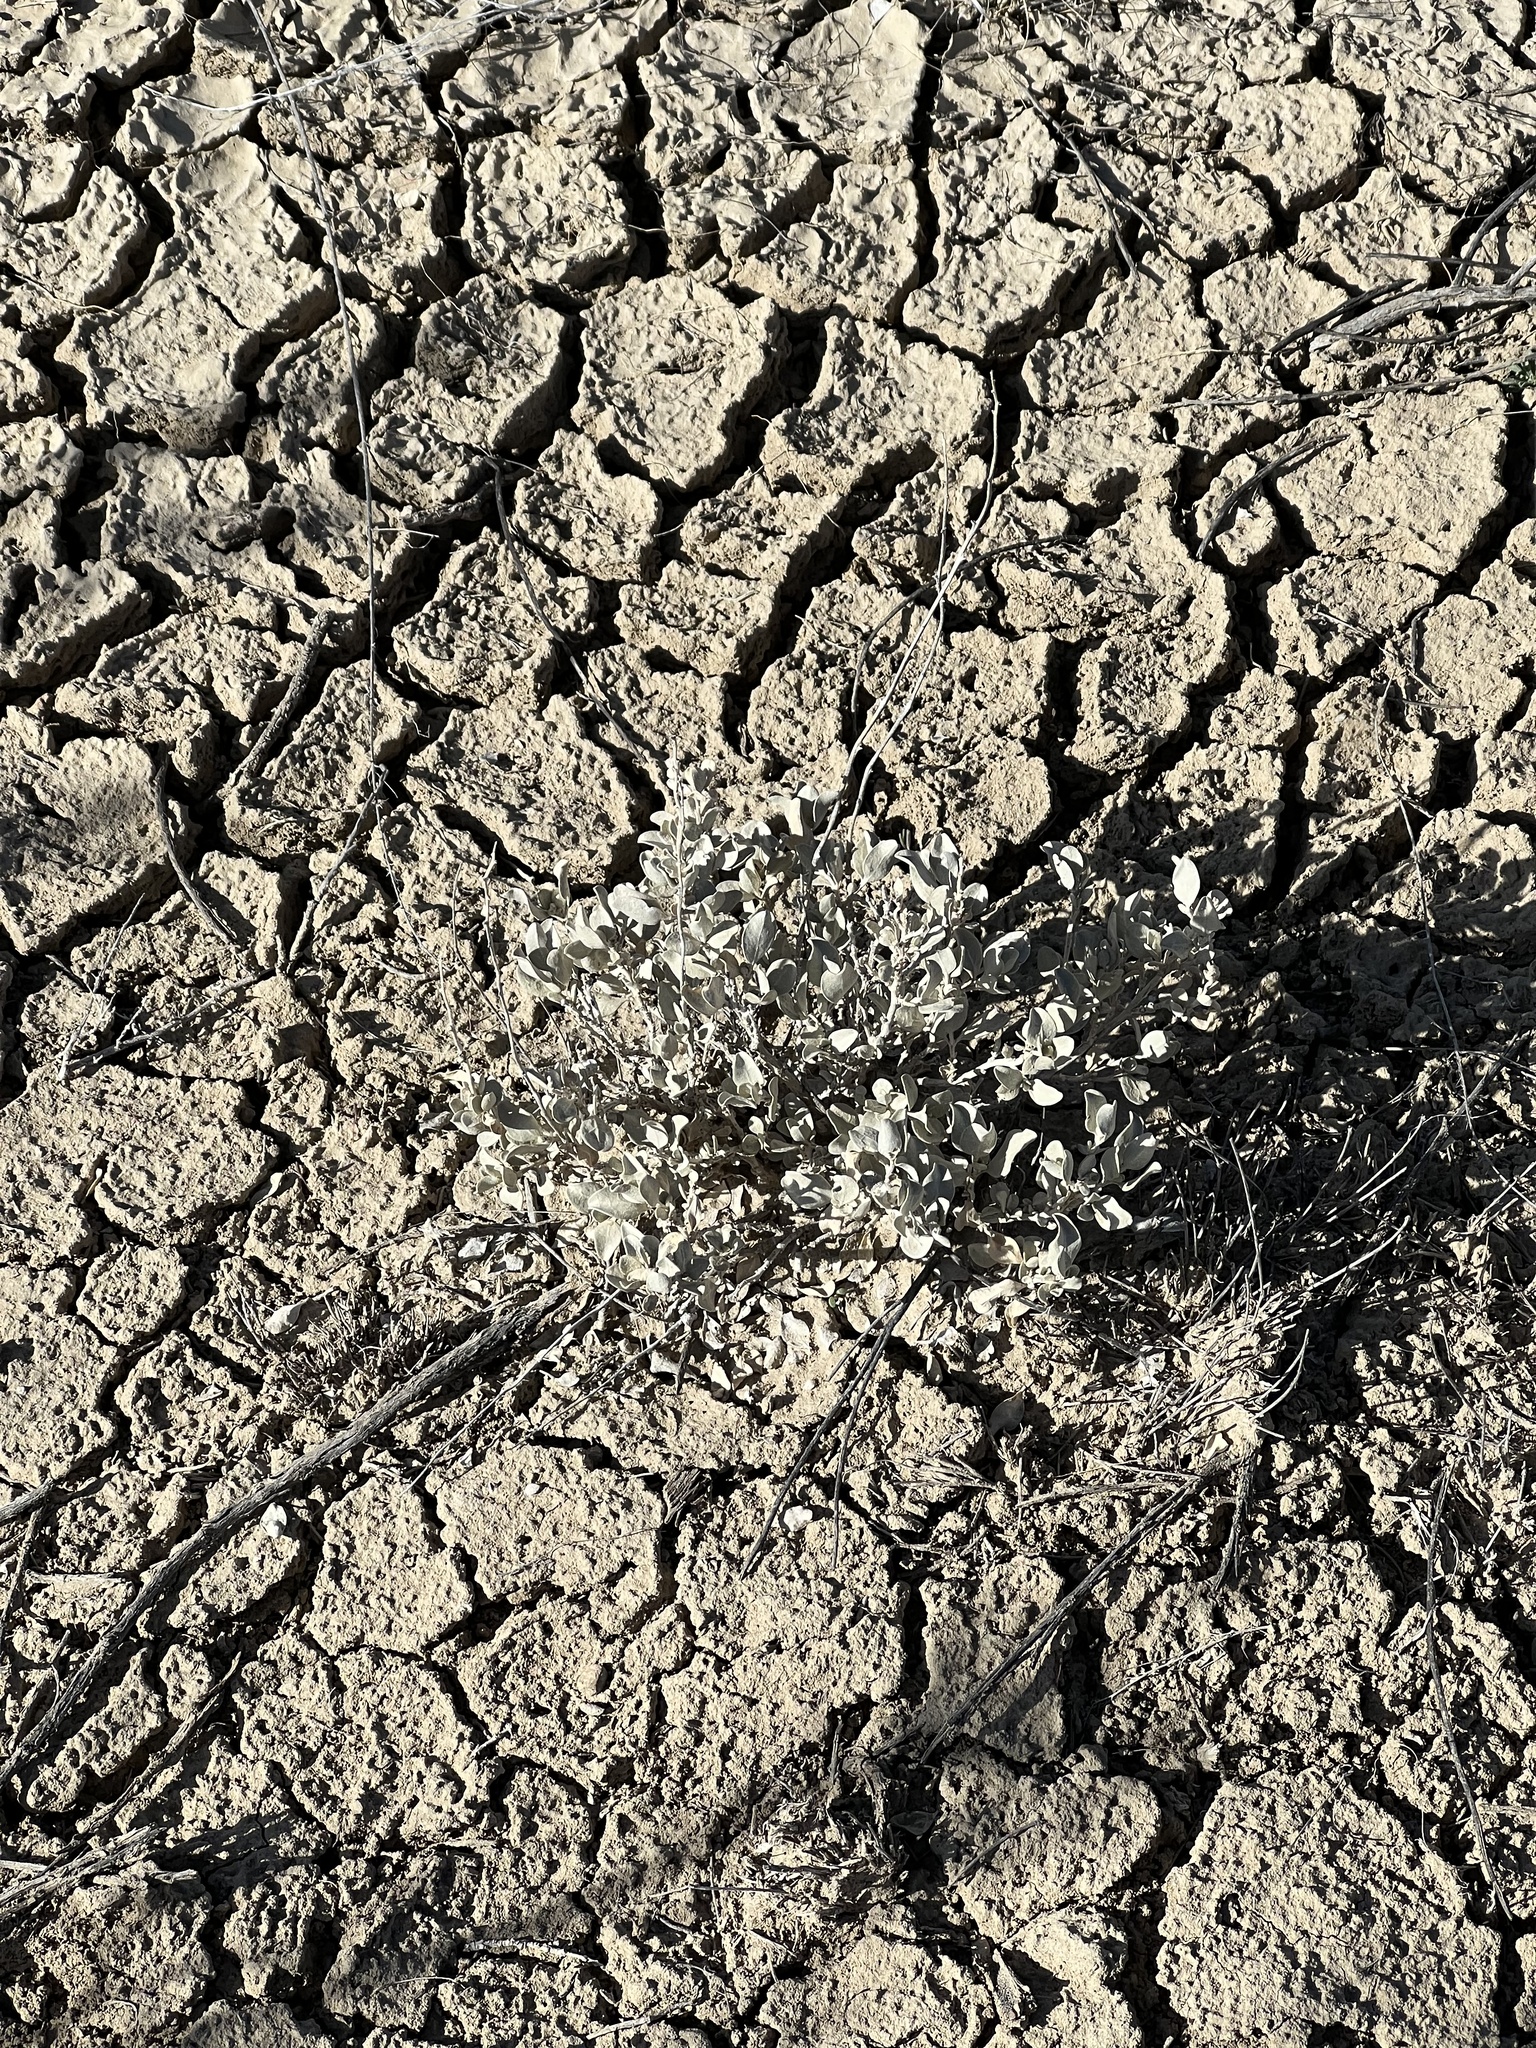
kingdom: Plantae
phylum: Tracheophyta
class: Magnoliopsida
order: Caryophyllales
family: Amaranthaceae
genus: Atriplex
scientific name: Atriplex confertifolia
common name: Shadscale
